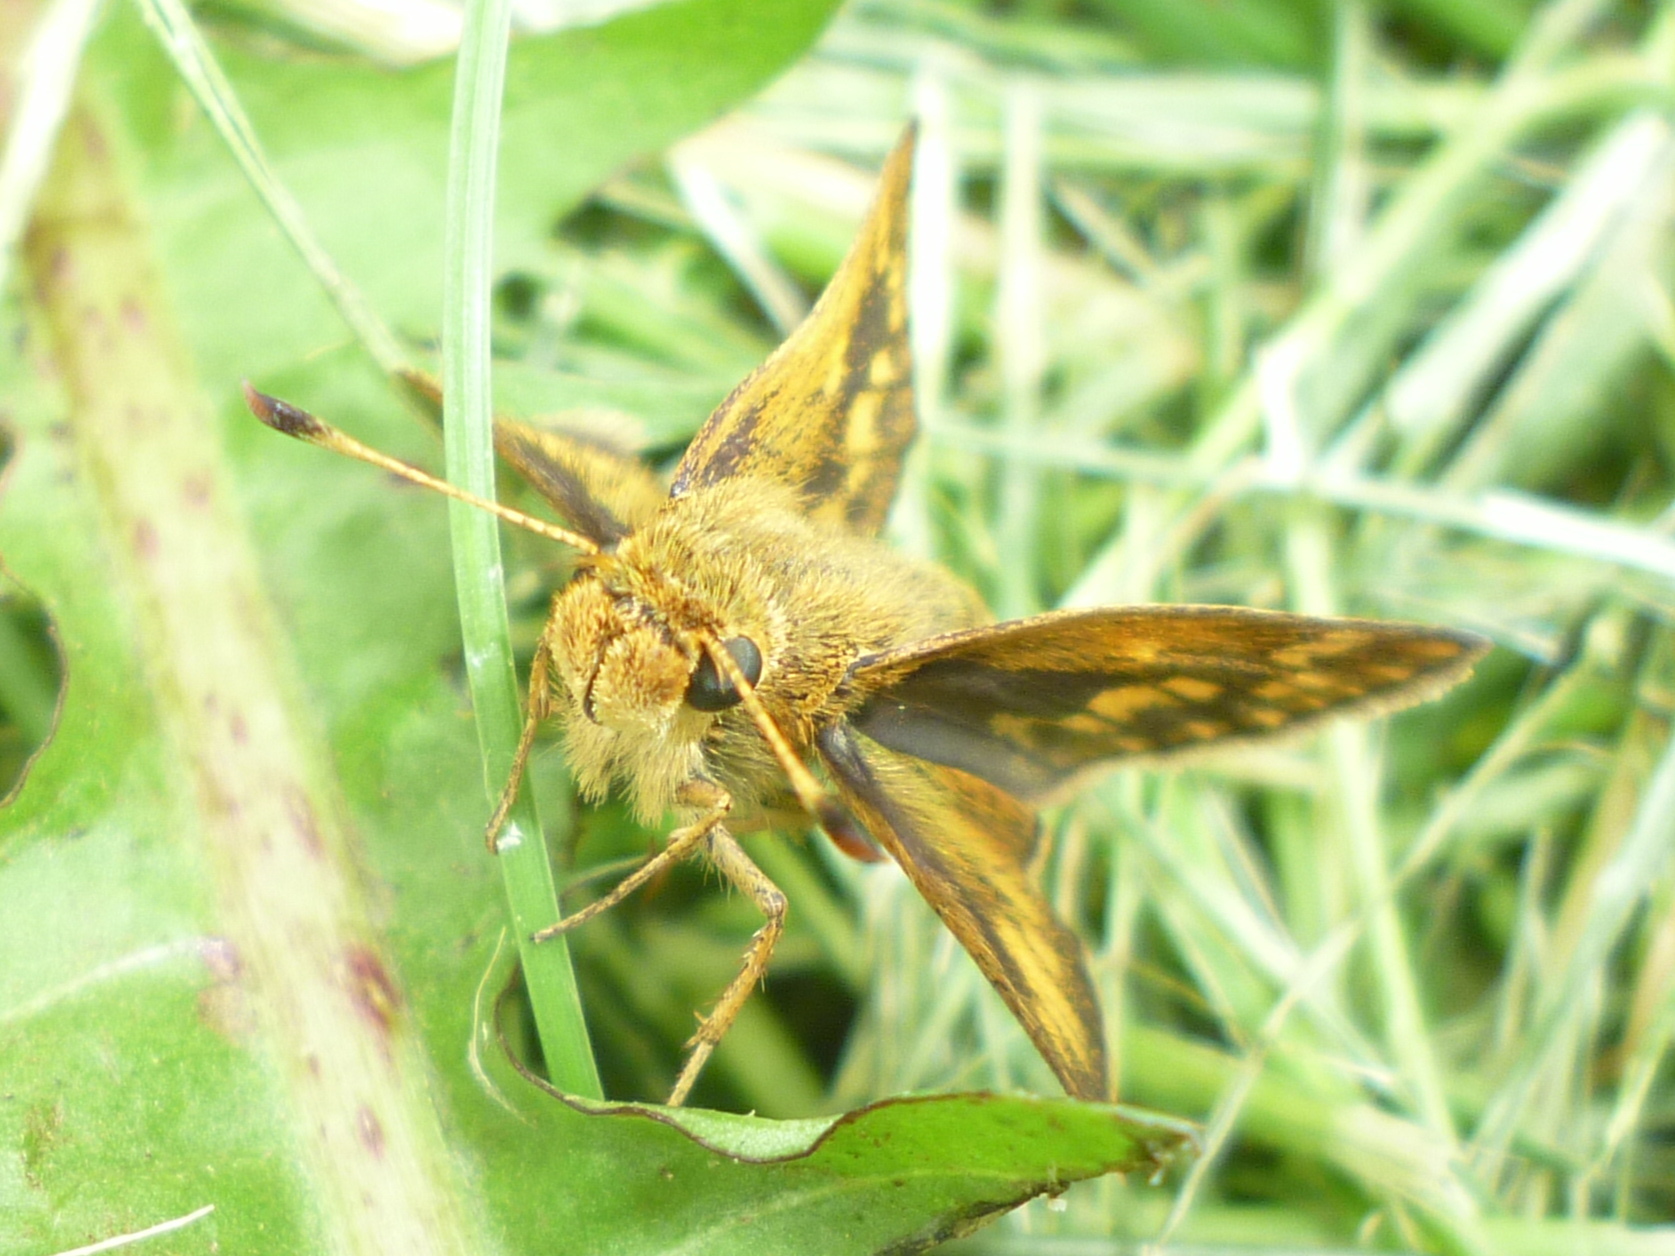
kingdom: Animalia
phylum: Arthropoda
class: Insecta
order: Lepidoptera
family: Hesperiidae
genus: Polites
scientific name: Polites coras
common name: Peck's skipper
